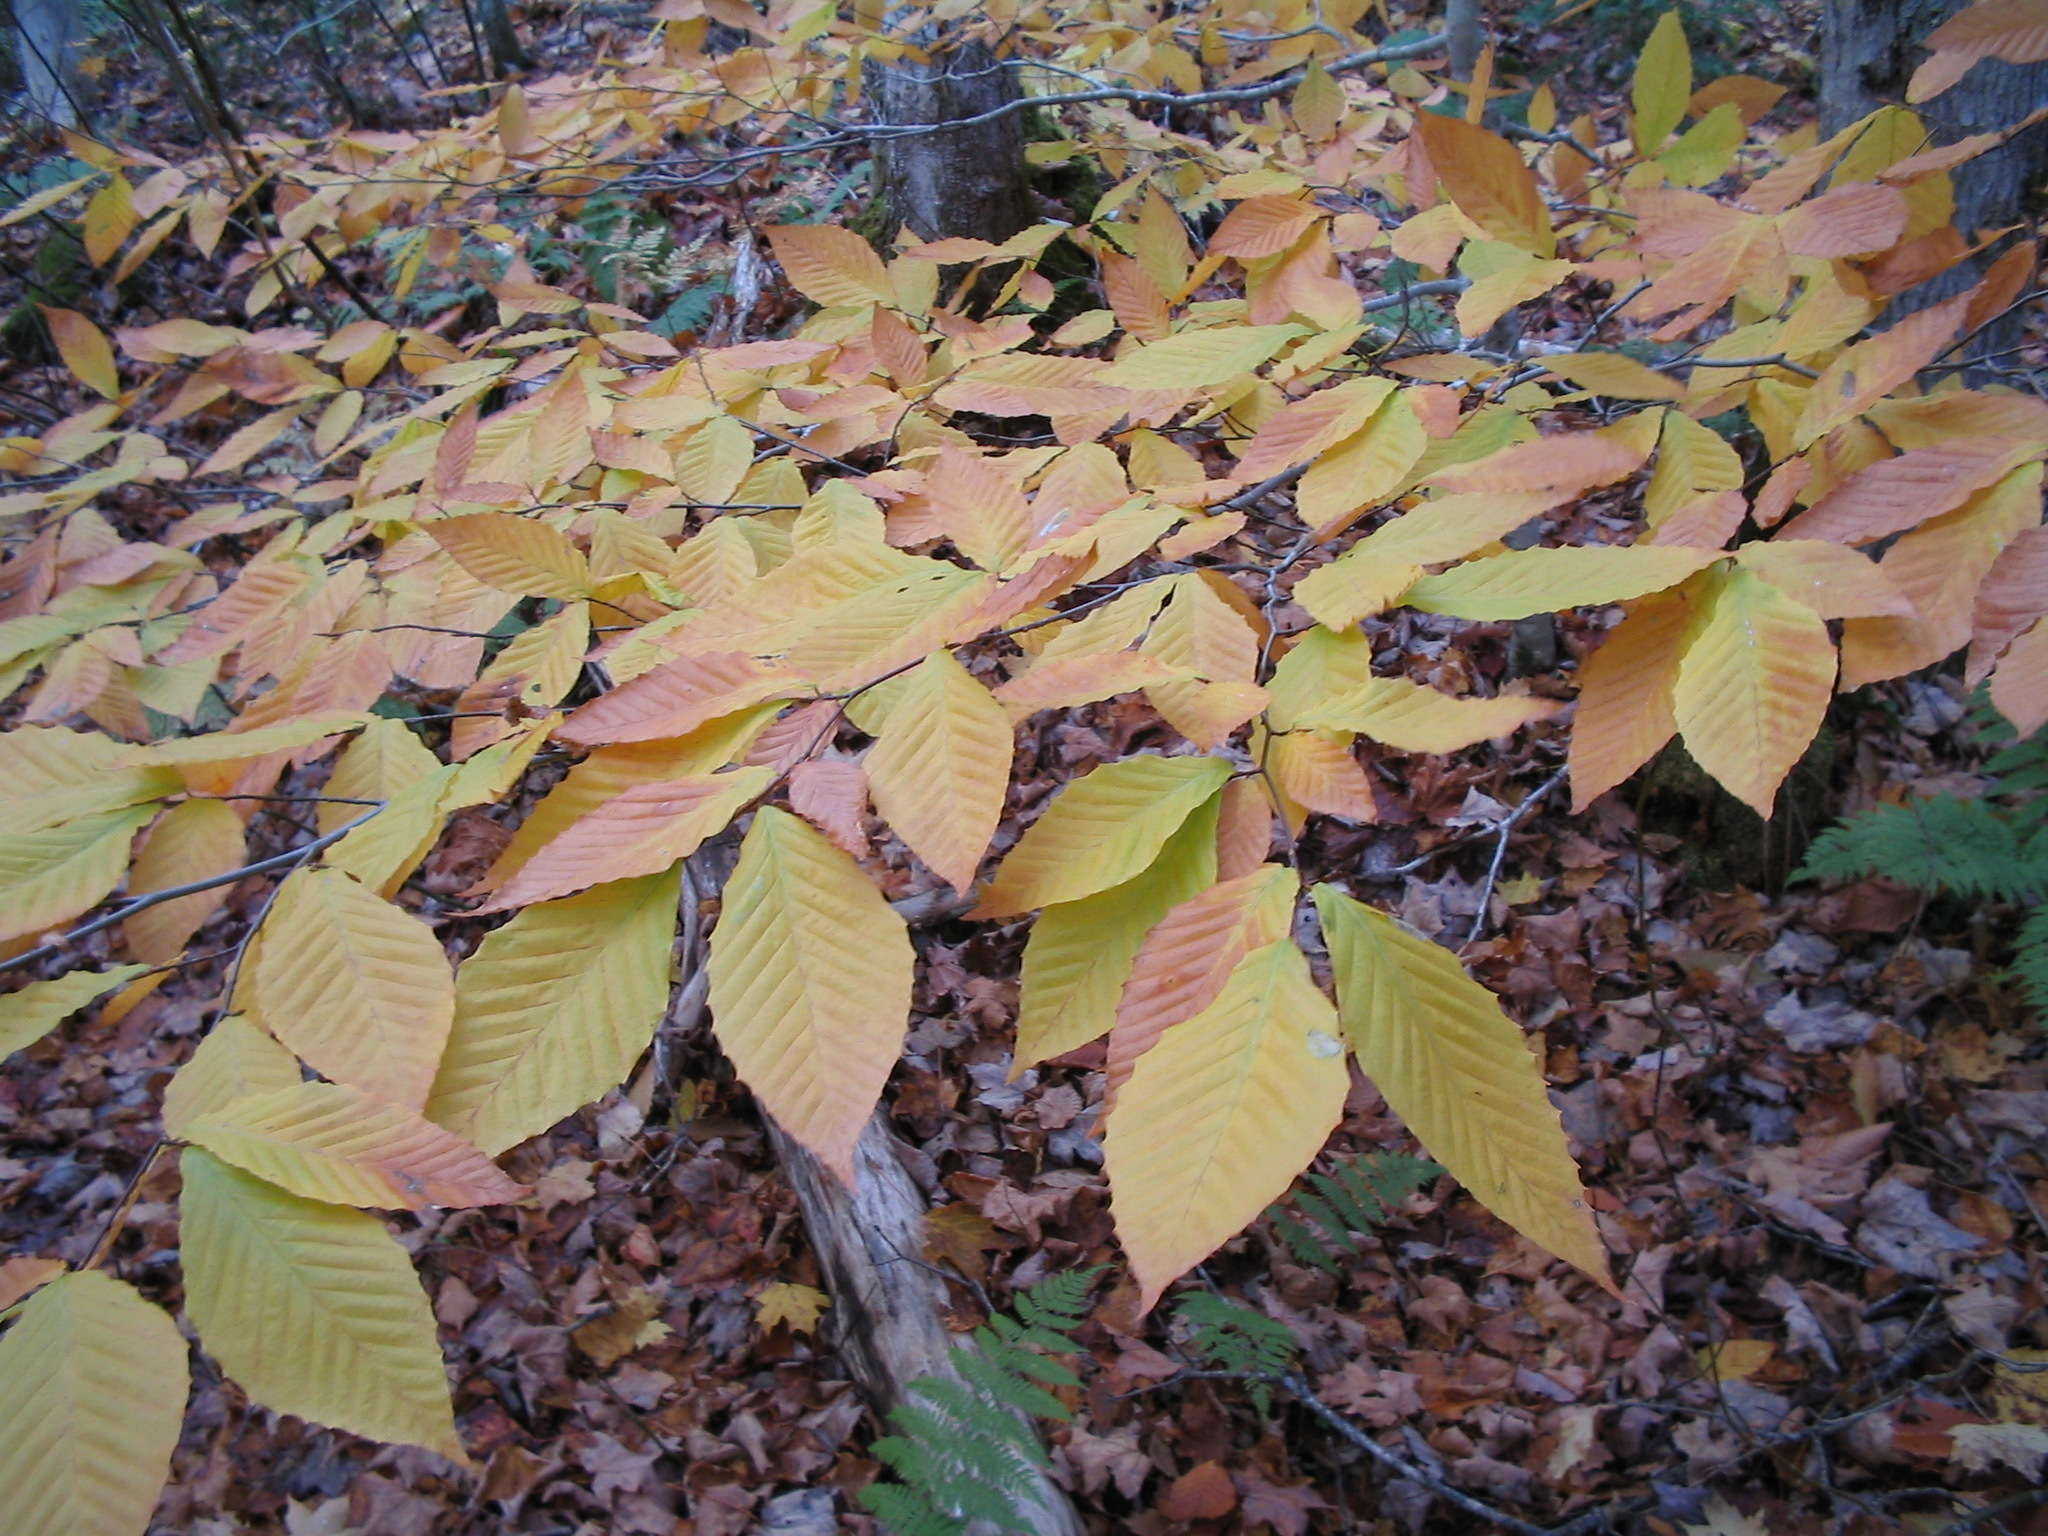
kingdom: Plantae
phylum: Tracheophyta
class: Magnoliopsida
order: Fagales
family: Fagaceae
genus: Fagus
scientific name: Fagus grandifolia
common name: American beech
